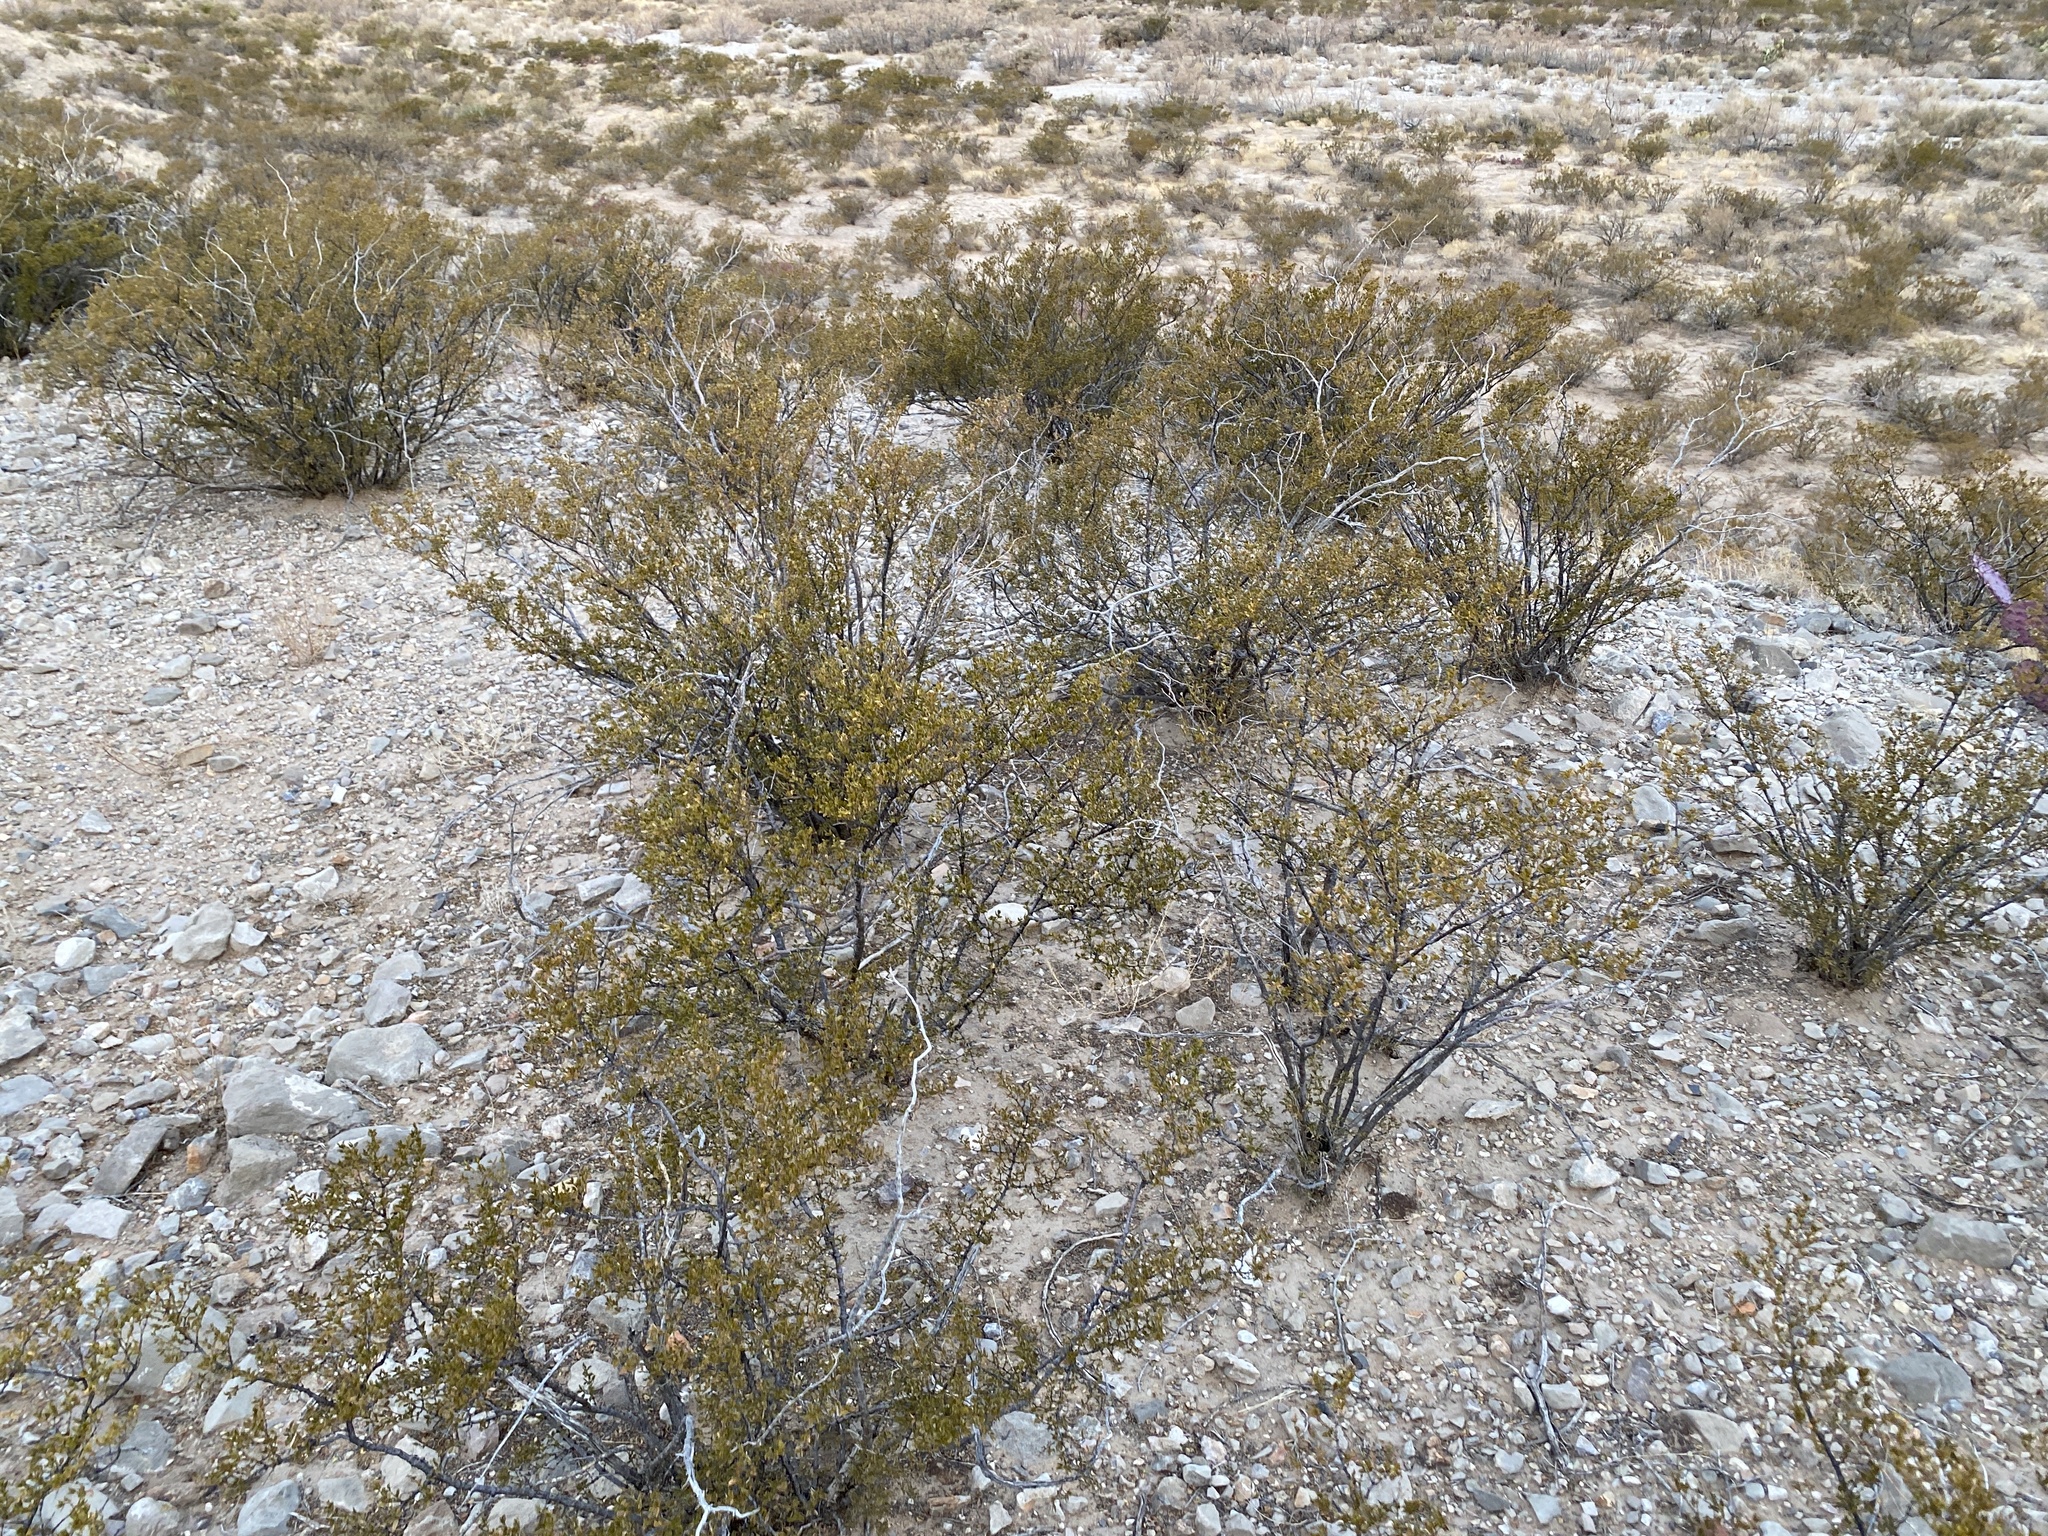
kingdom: Plantae
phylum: Tracheophyta
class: Magnoliopsida
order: Zygophyllales
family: Zygophyllaceae
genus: Larrea
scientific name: Larrea tridentata
